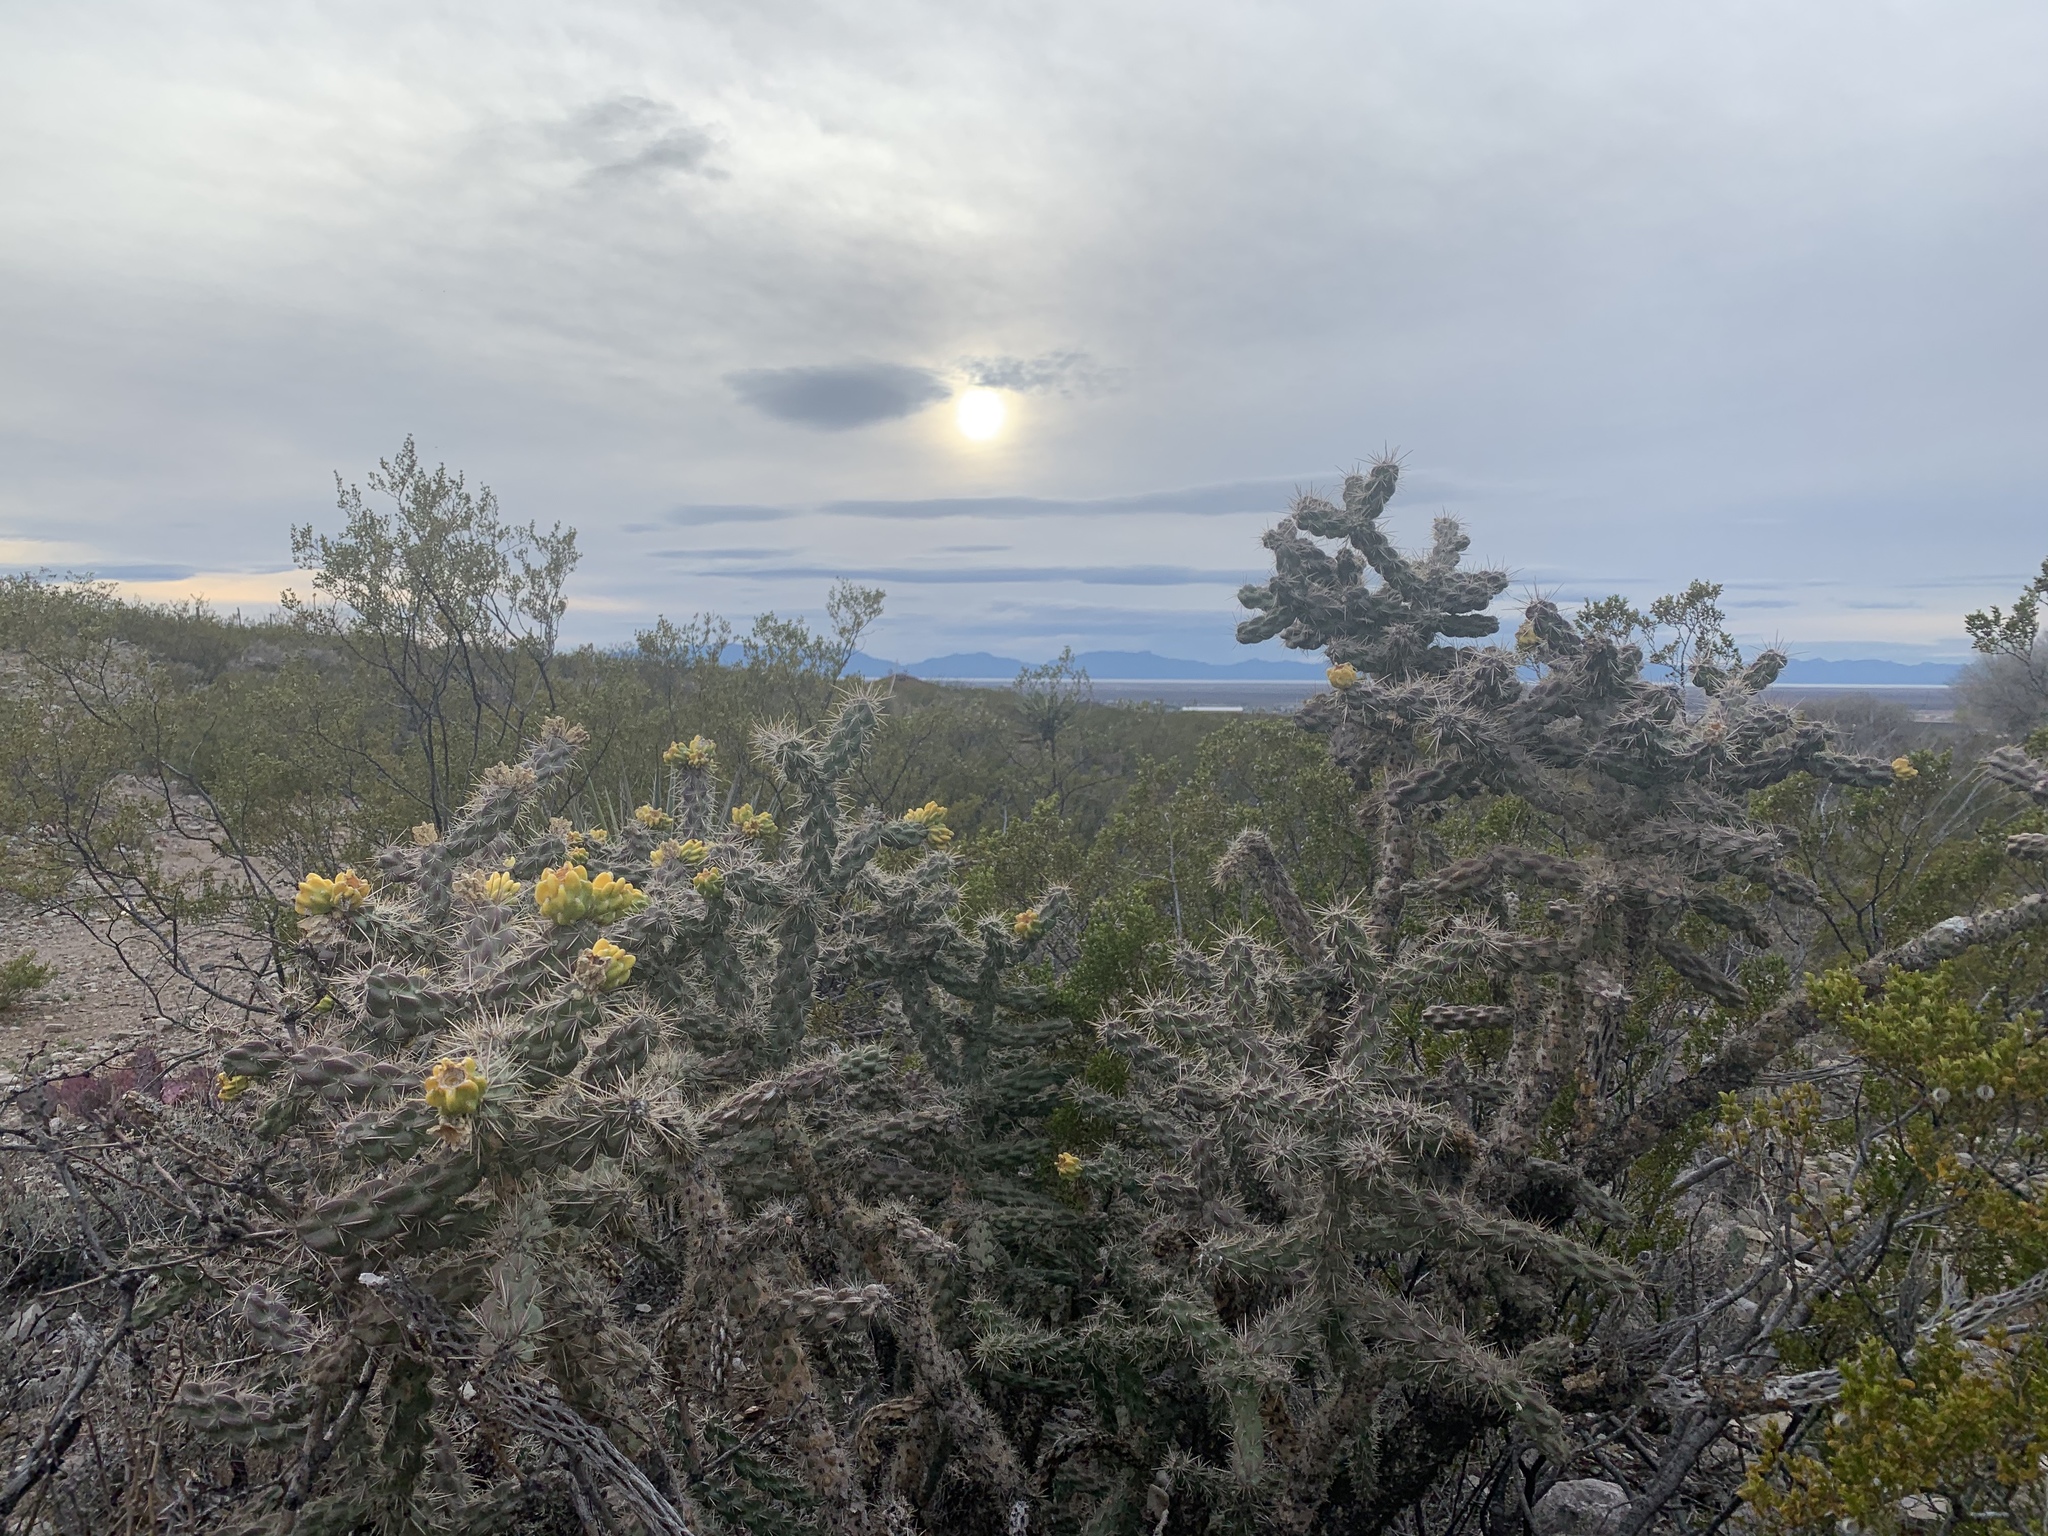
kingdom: Plantae
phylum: Tracheophyta
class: Magnoliopsida
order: Caryophyllales
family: Cactaceae
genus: Cylindropuntia
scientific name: Cylindropuntia imbricata
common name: Candelabrum cactus
